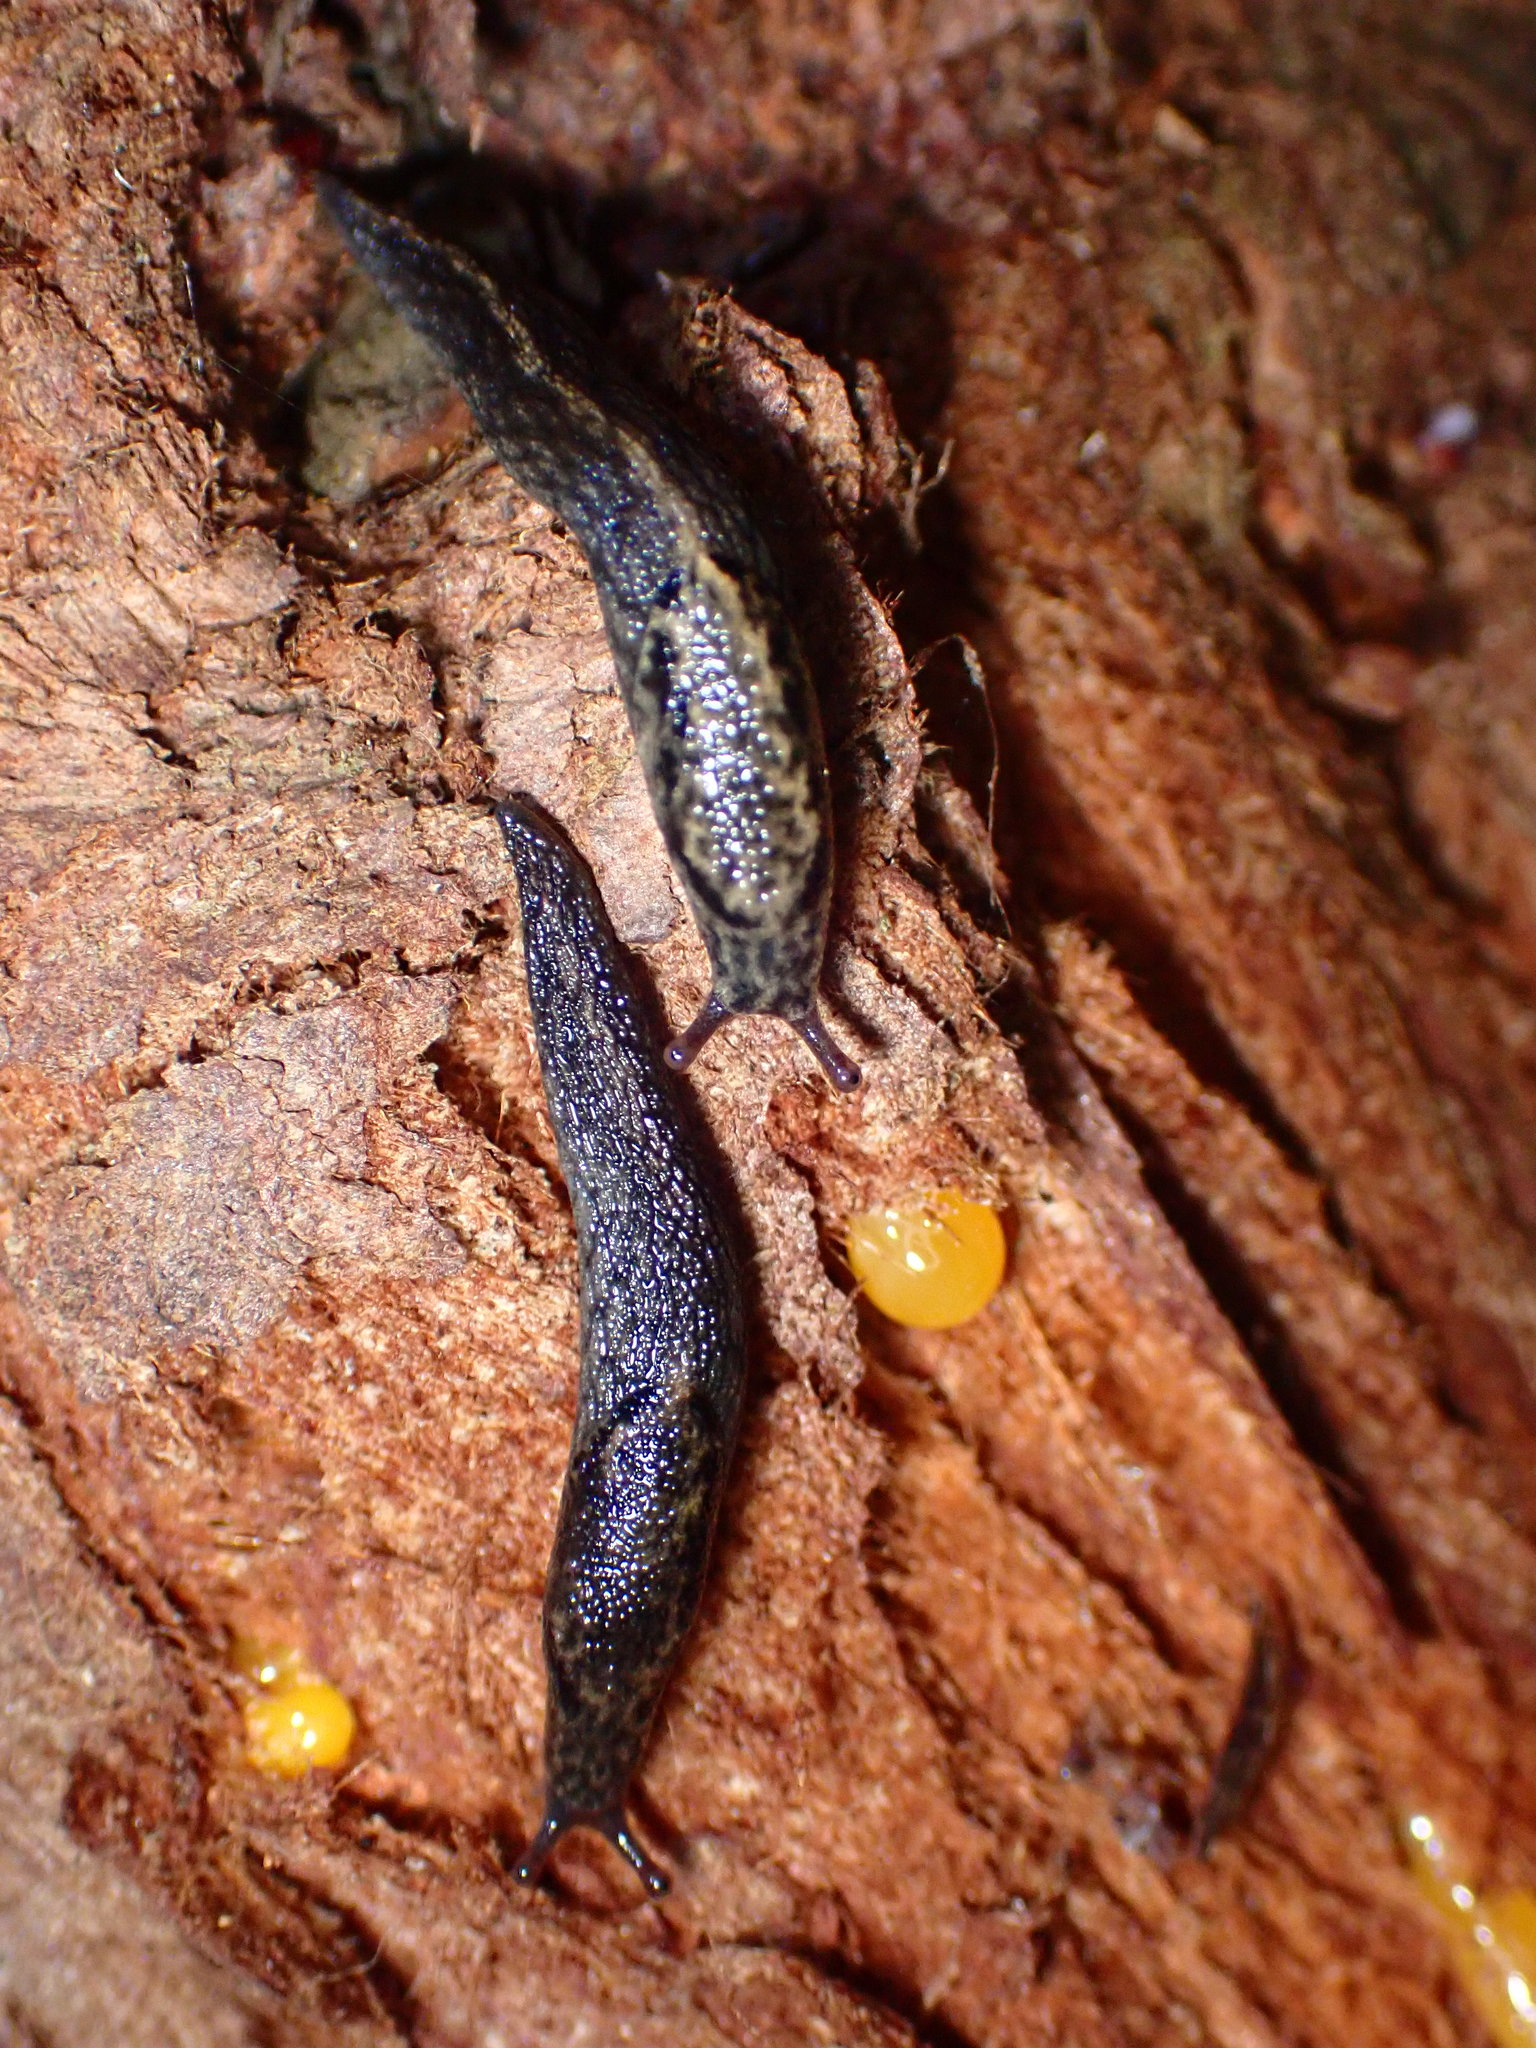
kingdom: Animalia
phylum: Mollusca
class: Gastropoda
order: Stylommatophora
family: Ariolimacidae
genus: Prophysaon
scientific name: Prophysaon andersonii
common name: Reticulate taildropper
